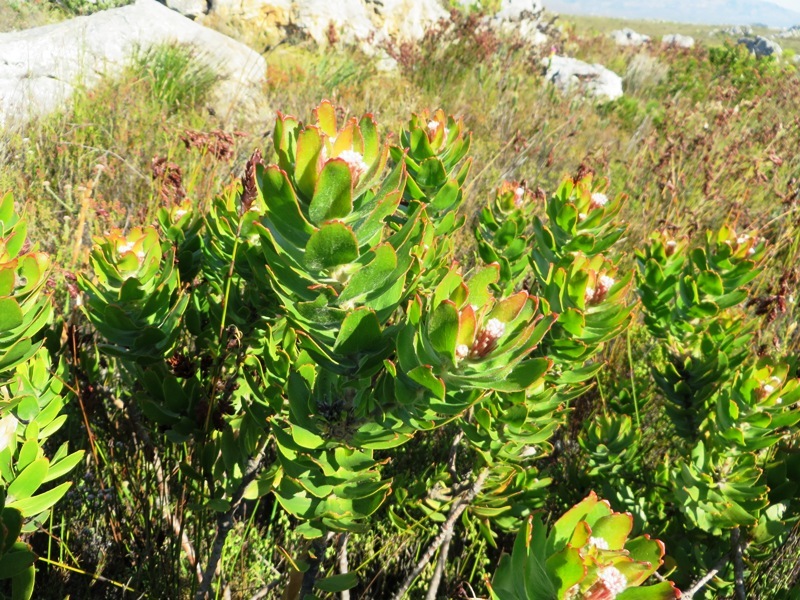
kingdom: Plantae
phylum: Tracheophyta
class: Magnoliopsida
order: Proteales
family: Proteaceae
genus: Leucospermum
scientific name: Leucospermum oleifolium
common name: Matches
